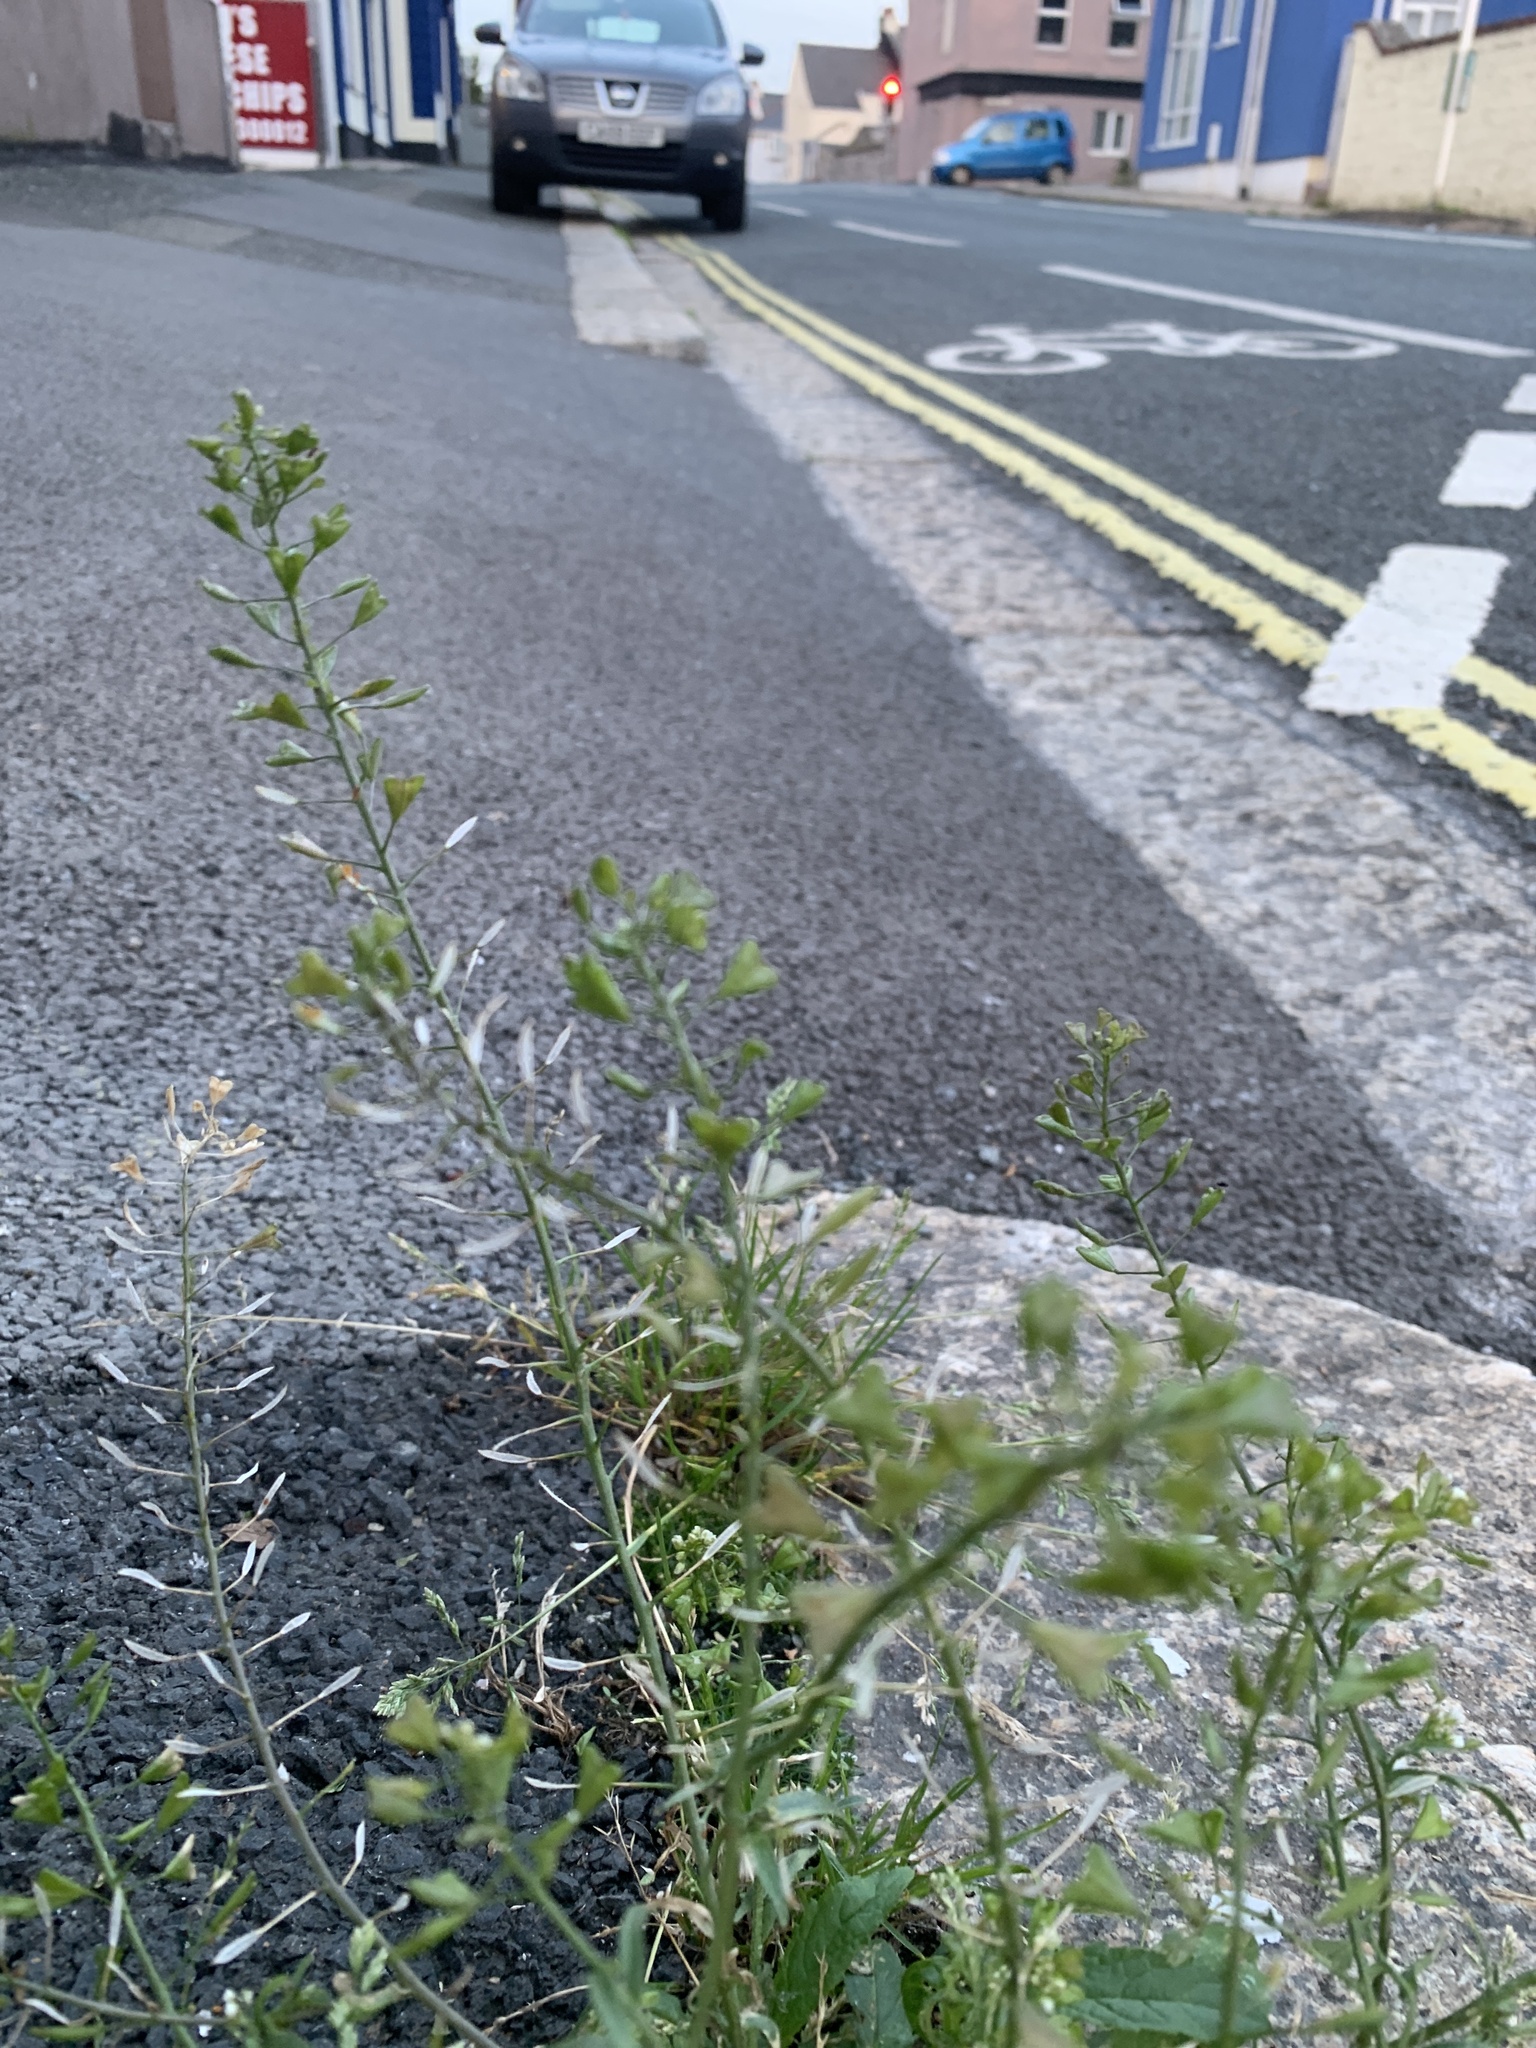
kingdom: Plantae
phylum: Tracheophyta
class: Magnoliopsida
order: Brassicales
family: Brassicaceae
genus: Capsella
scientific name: Capsella bursa-pastoris
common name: Shepherd's purse
